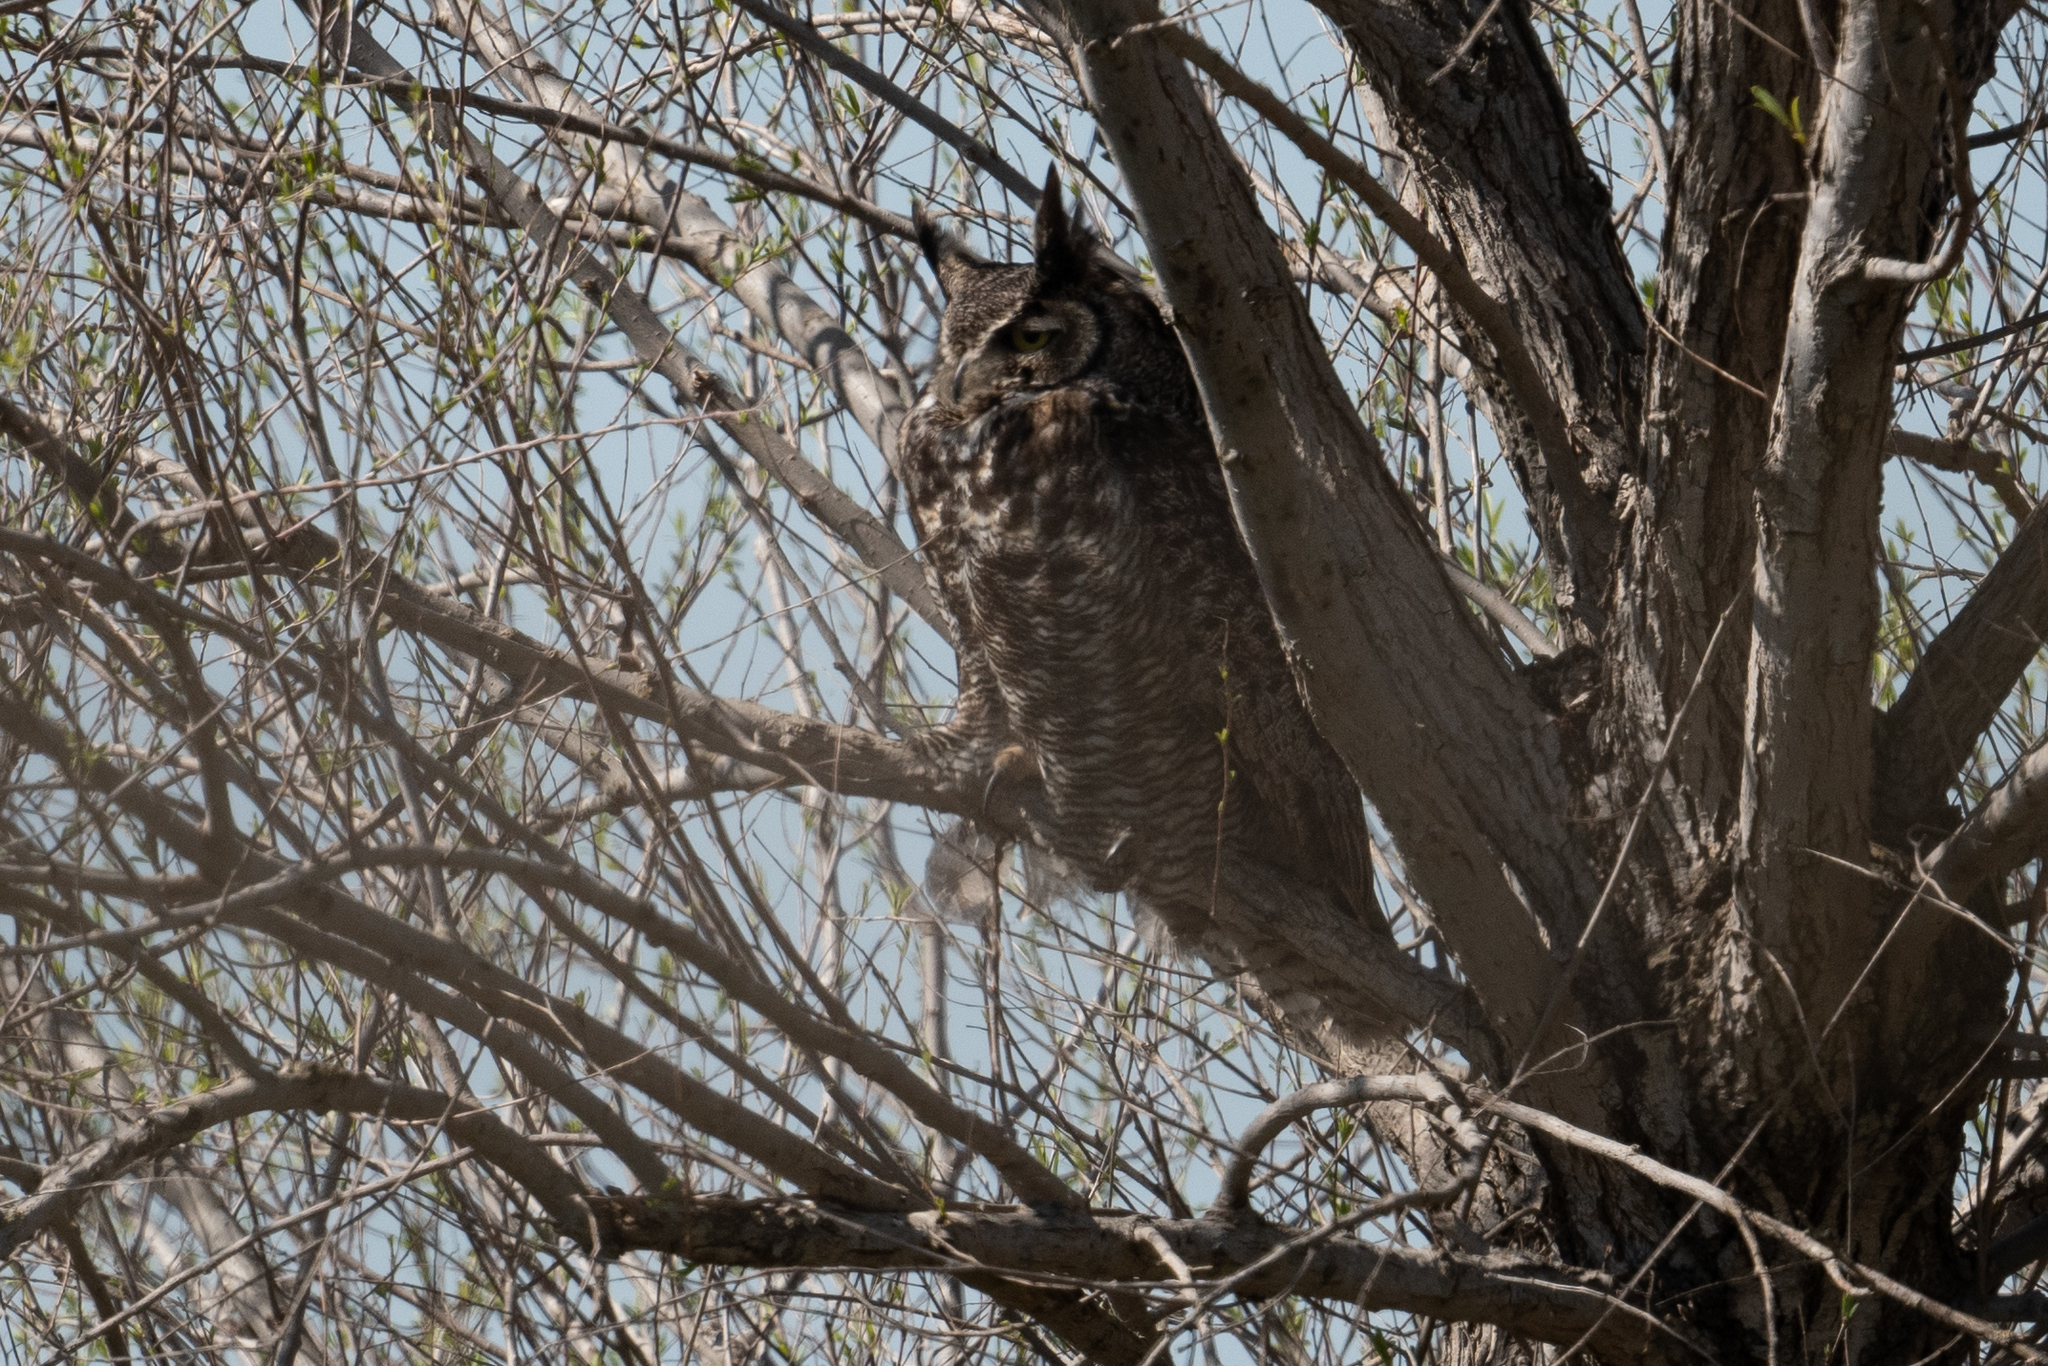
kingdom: Animalia
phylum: Chordata
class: Aves
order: Strigiformes
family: Strigidae
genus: Bubo
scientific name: Bubo virginianus
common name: Great horned owl
